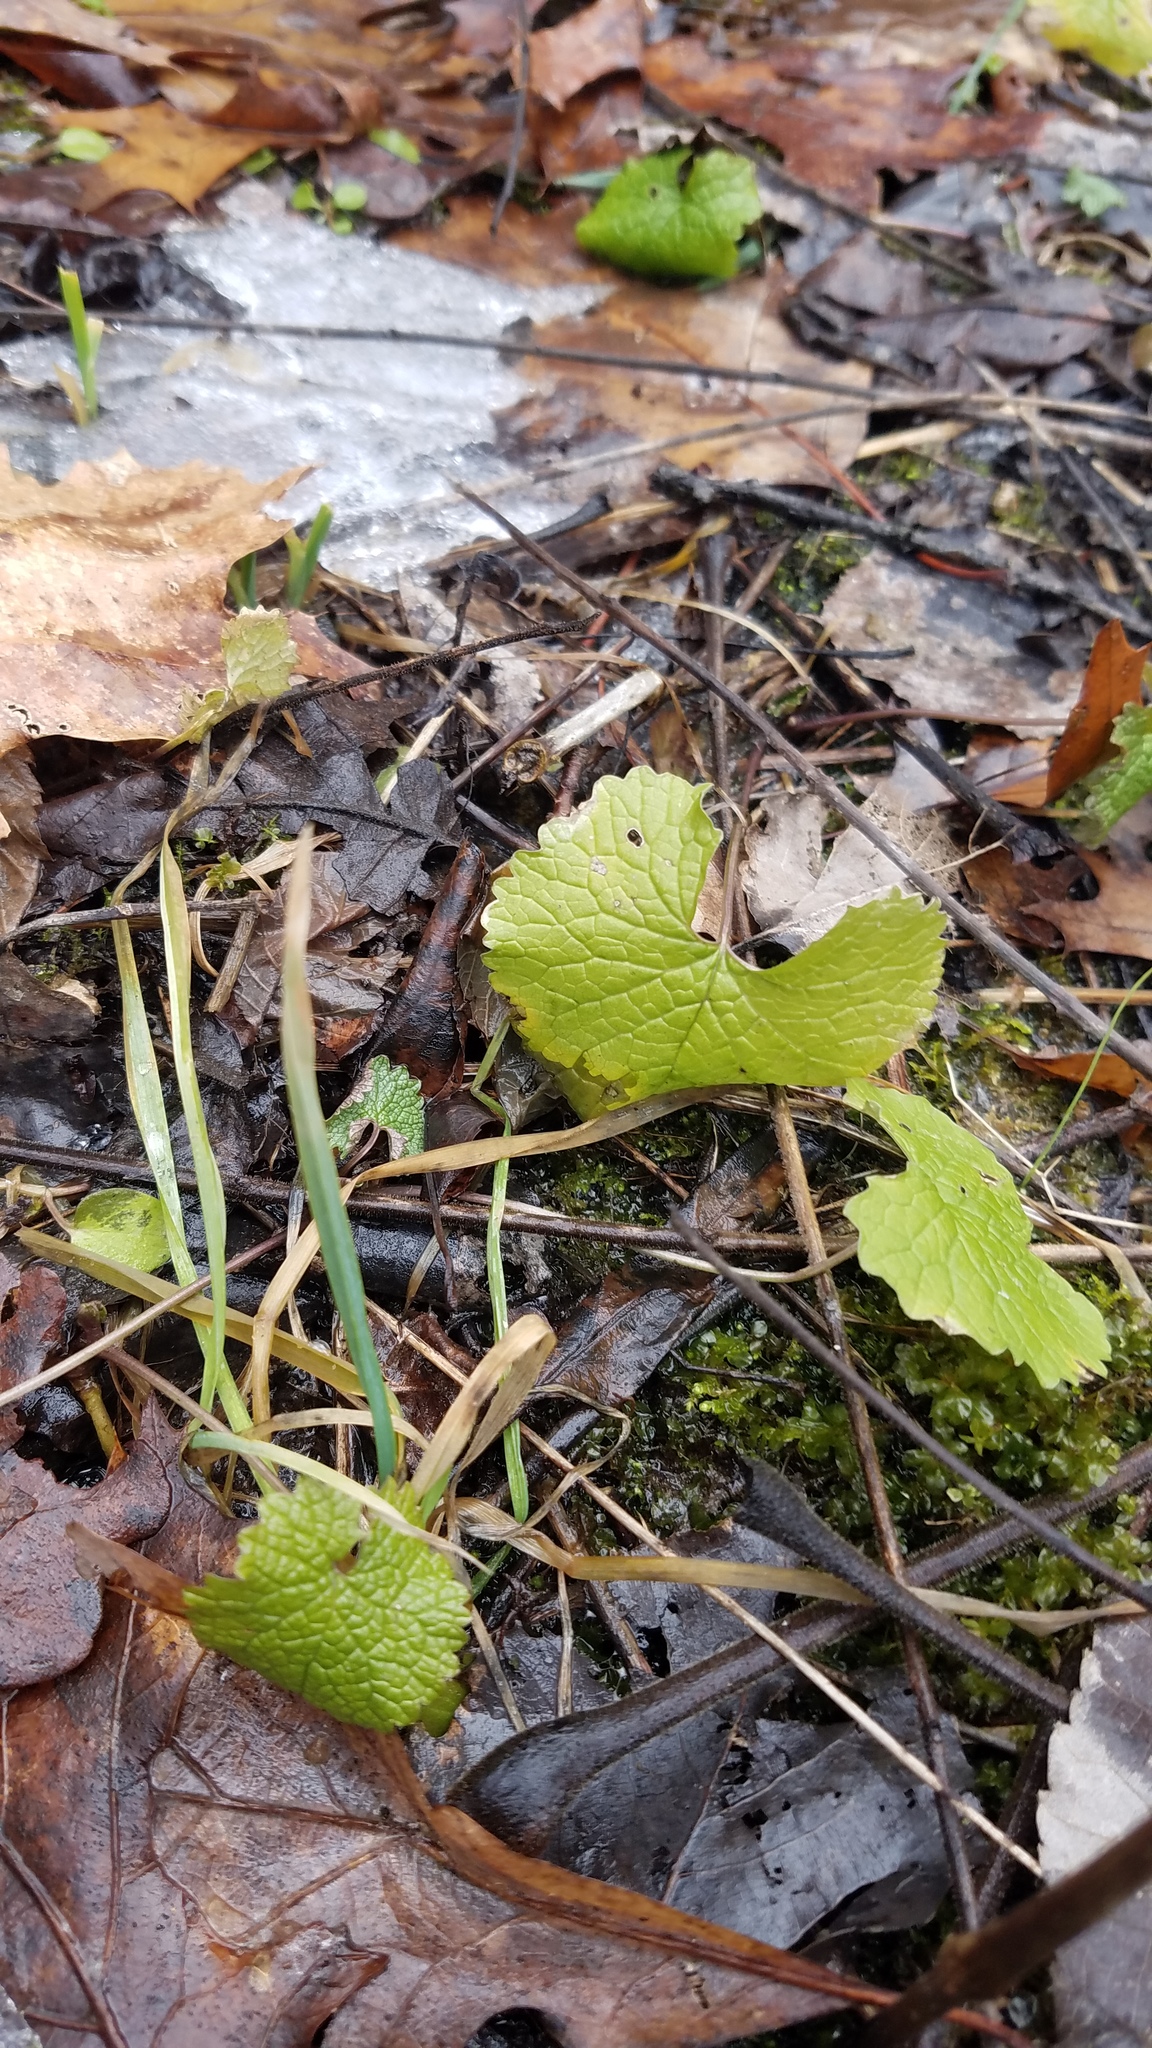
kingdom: Plantae
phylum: Tracheophyta
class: Magnoliopsida
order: Brassicales
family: Brassicaceae
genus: Alliaria
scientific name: Alliaria petiolata
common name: Garlic mustard
